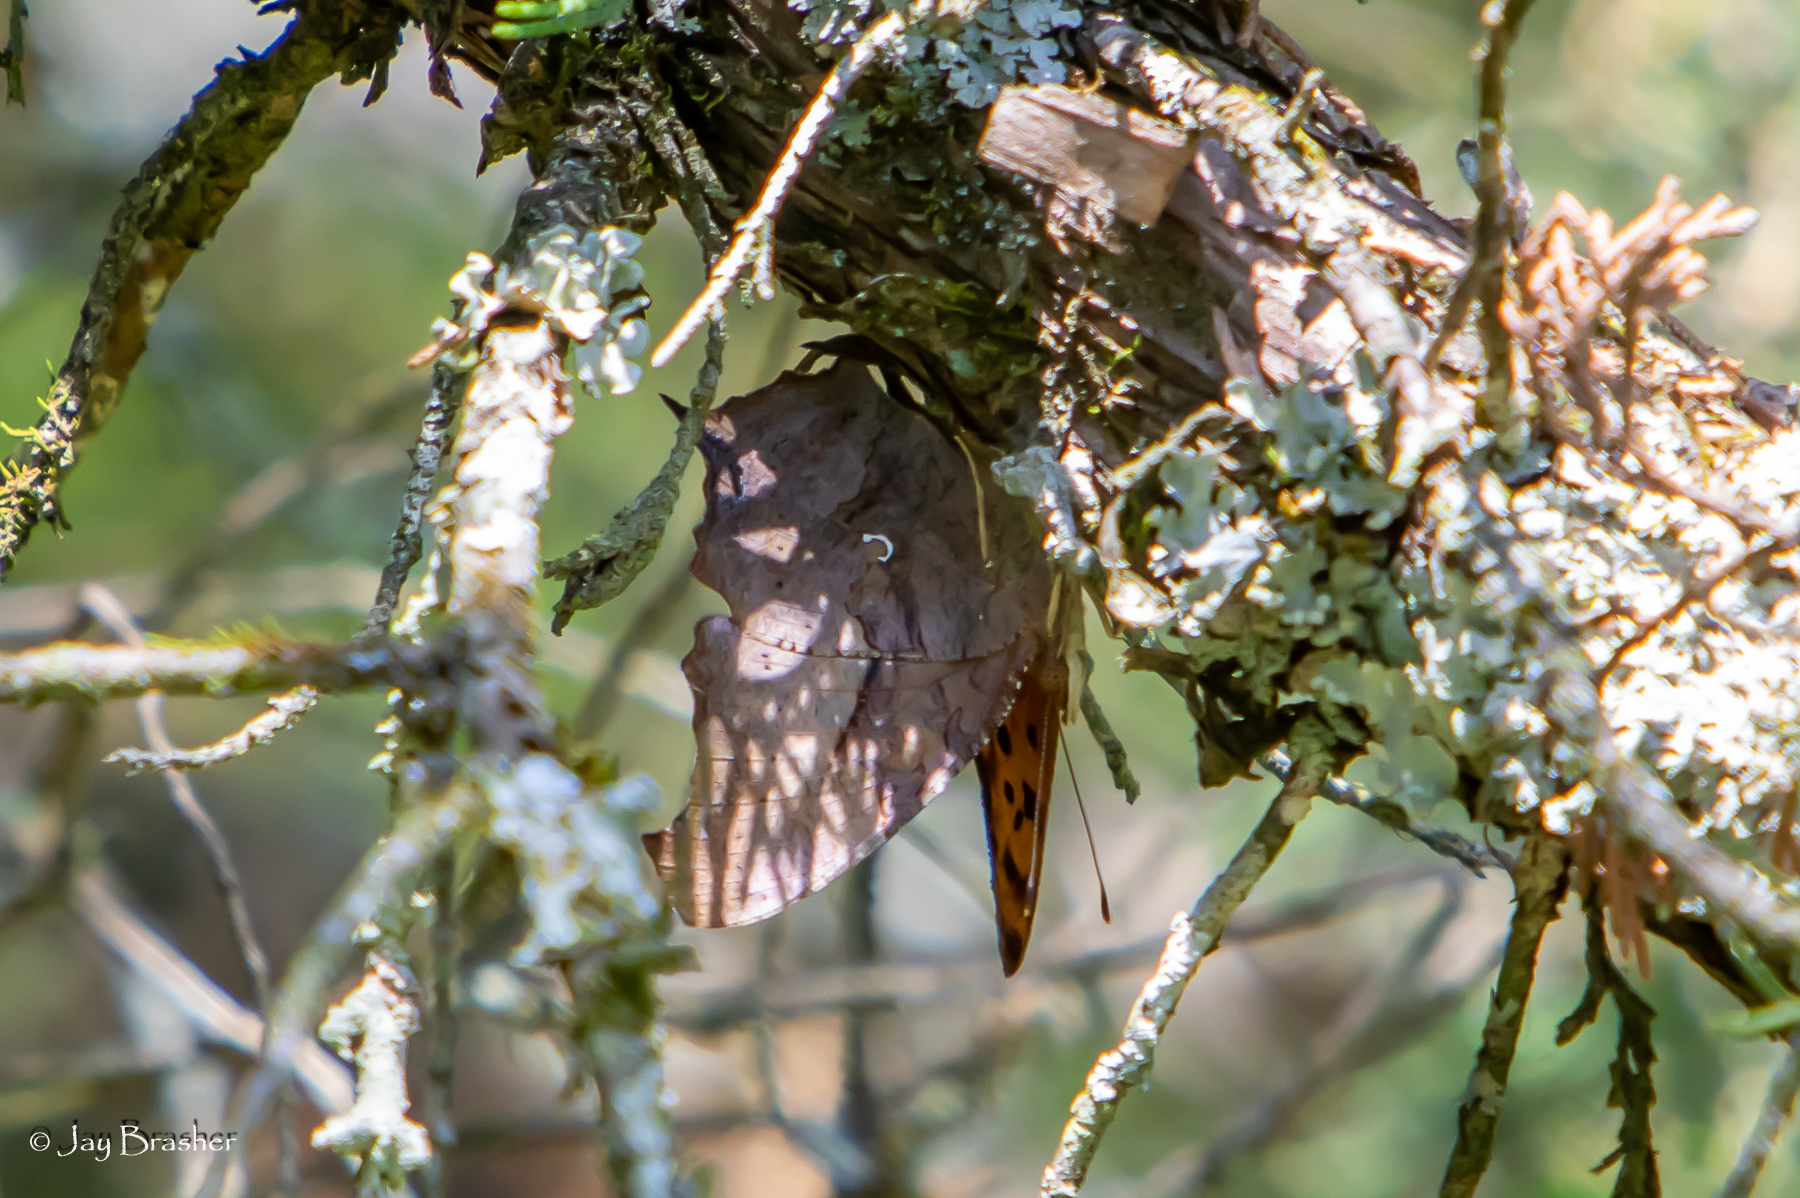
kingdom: Animalia
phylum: Arthropoda
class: Insecta
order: Lepidoptera
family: Nymphalidae
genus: Polygonia
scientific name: Polygonia interrogationis
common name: Question mark
